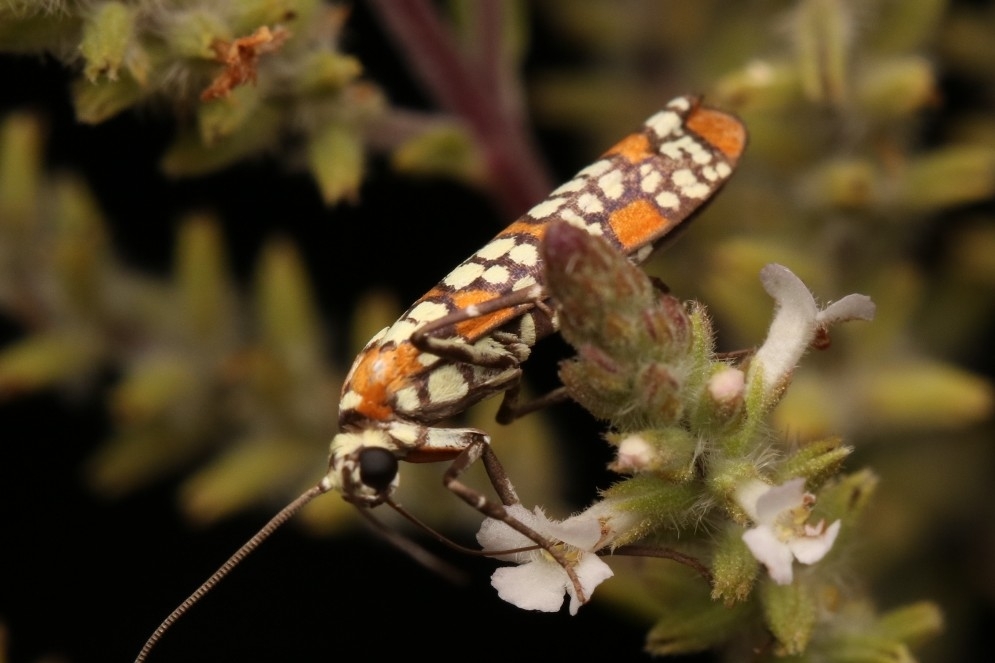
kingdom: Animalia
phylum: Arthropoda
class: Insecta
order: Lepidoptera
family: Attevidae
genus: Atteva
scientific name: Atteva punctella
